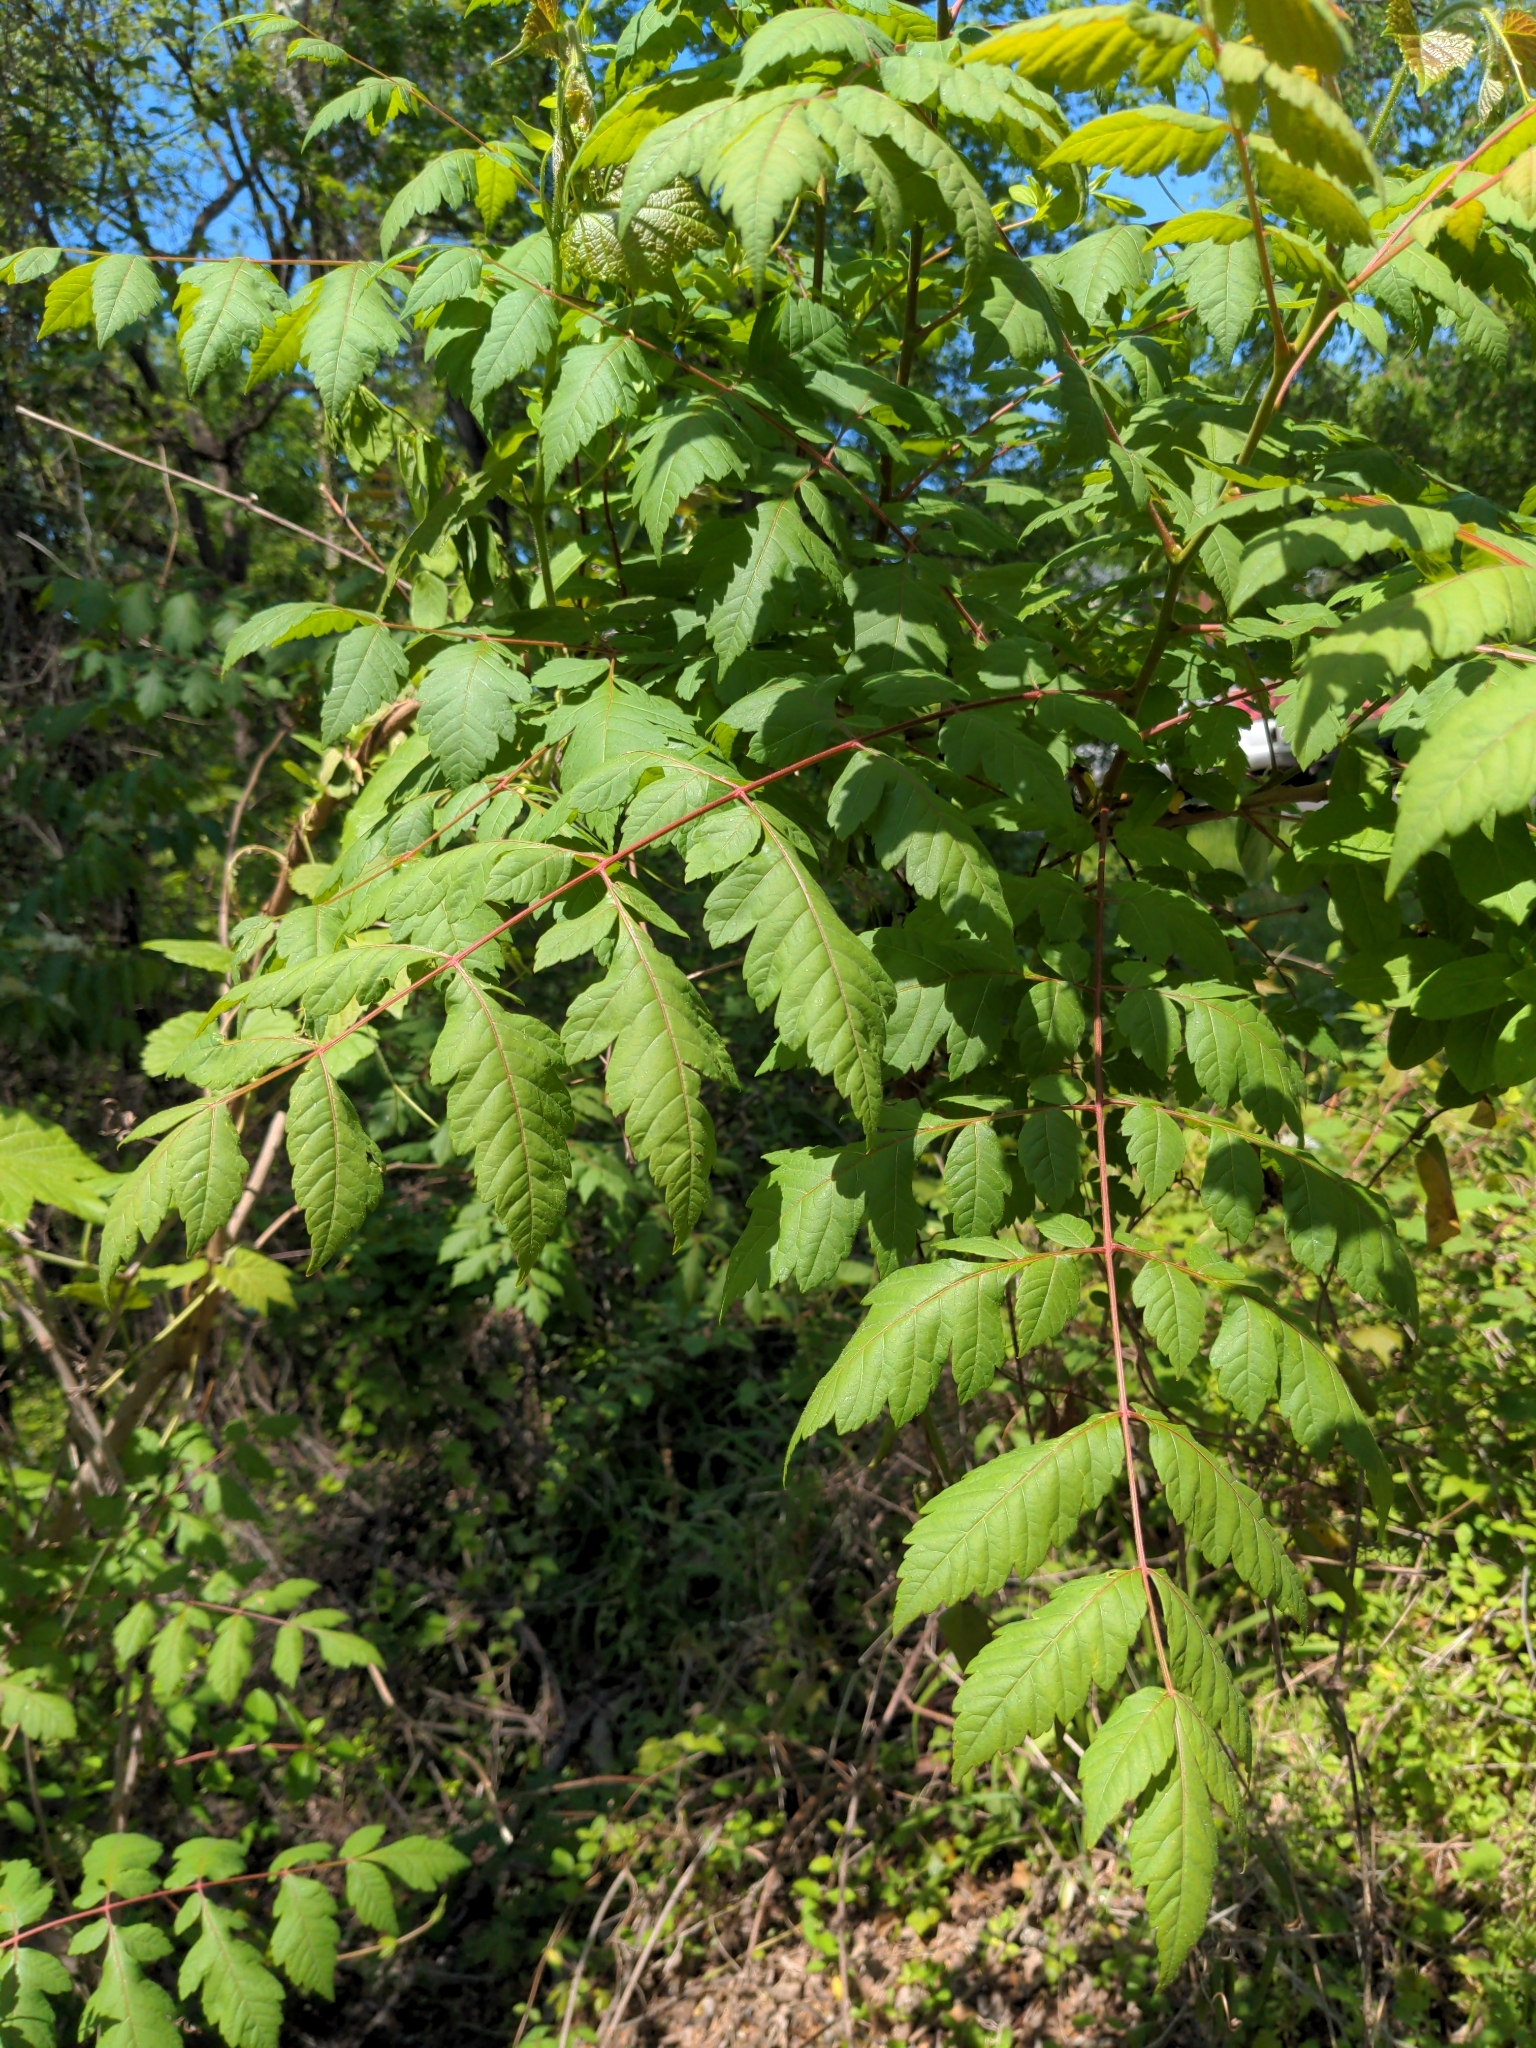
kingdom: Plantae
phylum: Tracheophyta
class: Magnoliopsida
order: Sapindales
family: Sapindaceae
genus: Koelreuteria
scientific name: Koelreuteria paniculata
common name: Pride-of-india
